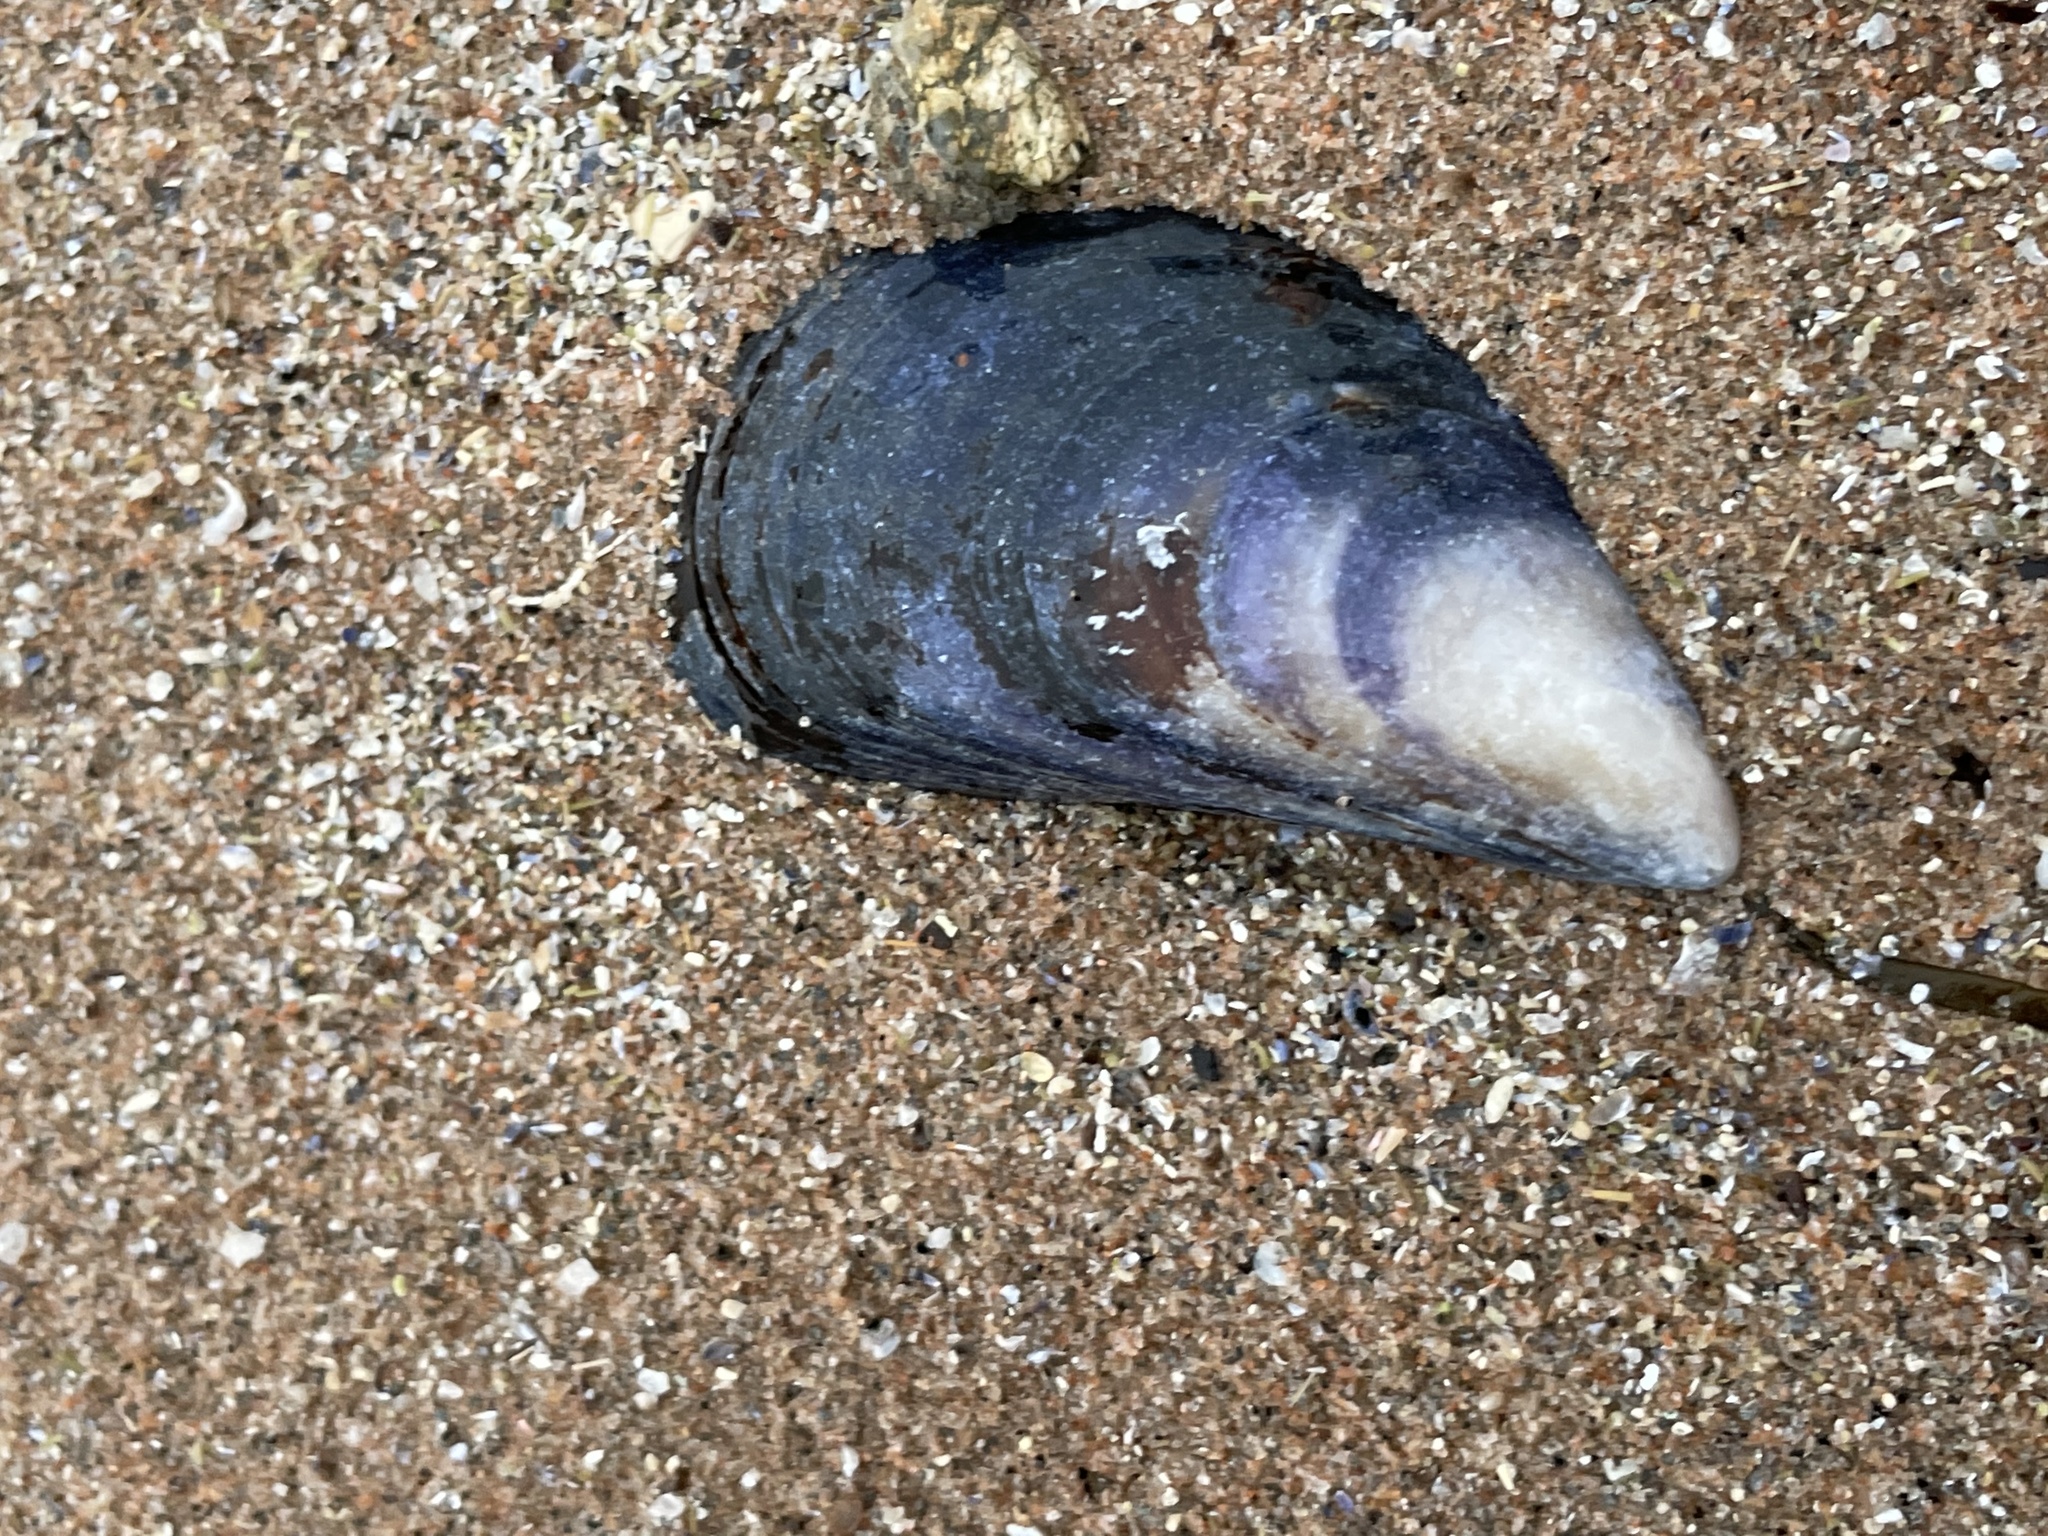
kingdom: Animalia
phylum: Mollusca
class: Bivalvia
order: Mytilida
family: Mytilidae
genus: Mytilus
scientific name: Mytilus edulis
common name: Blue mussel
